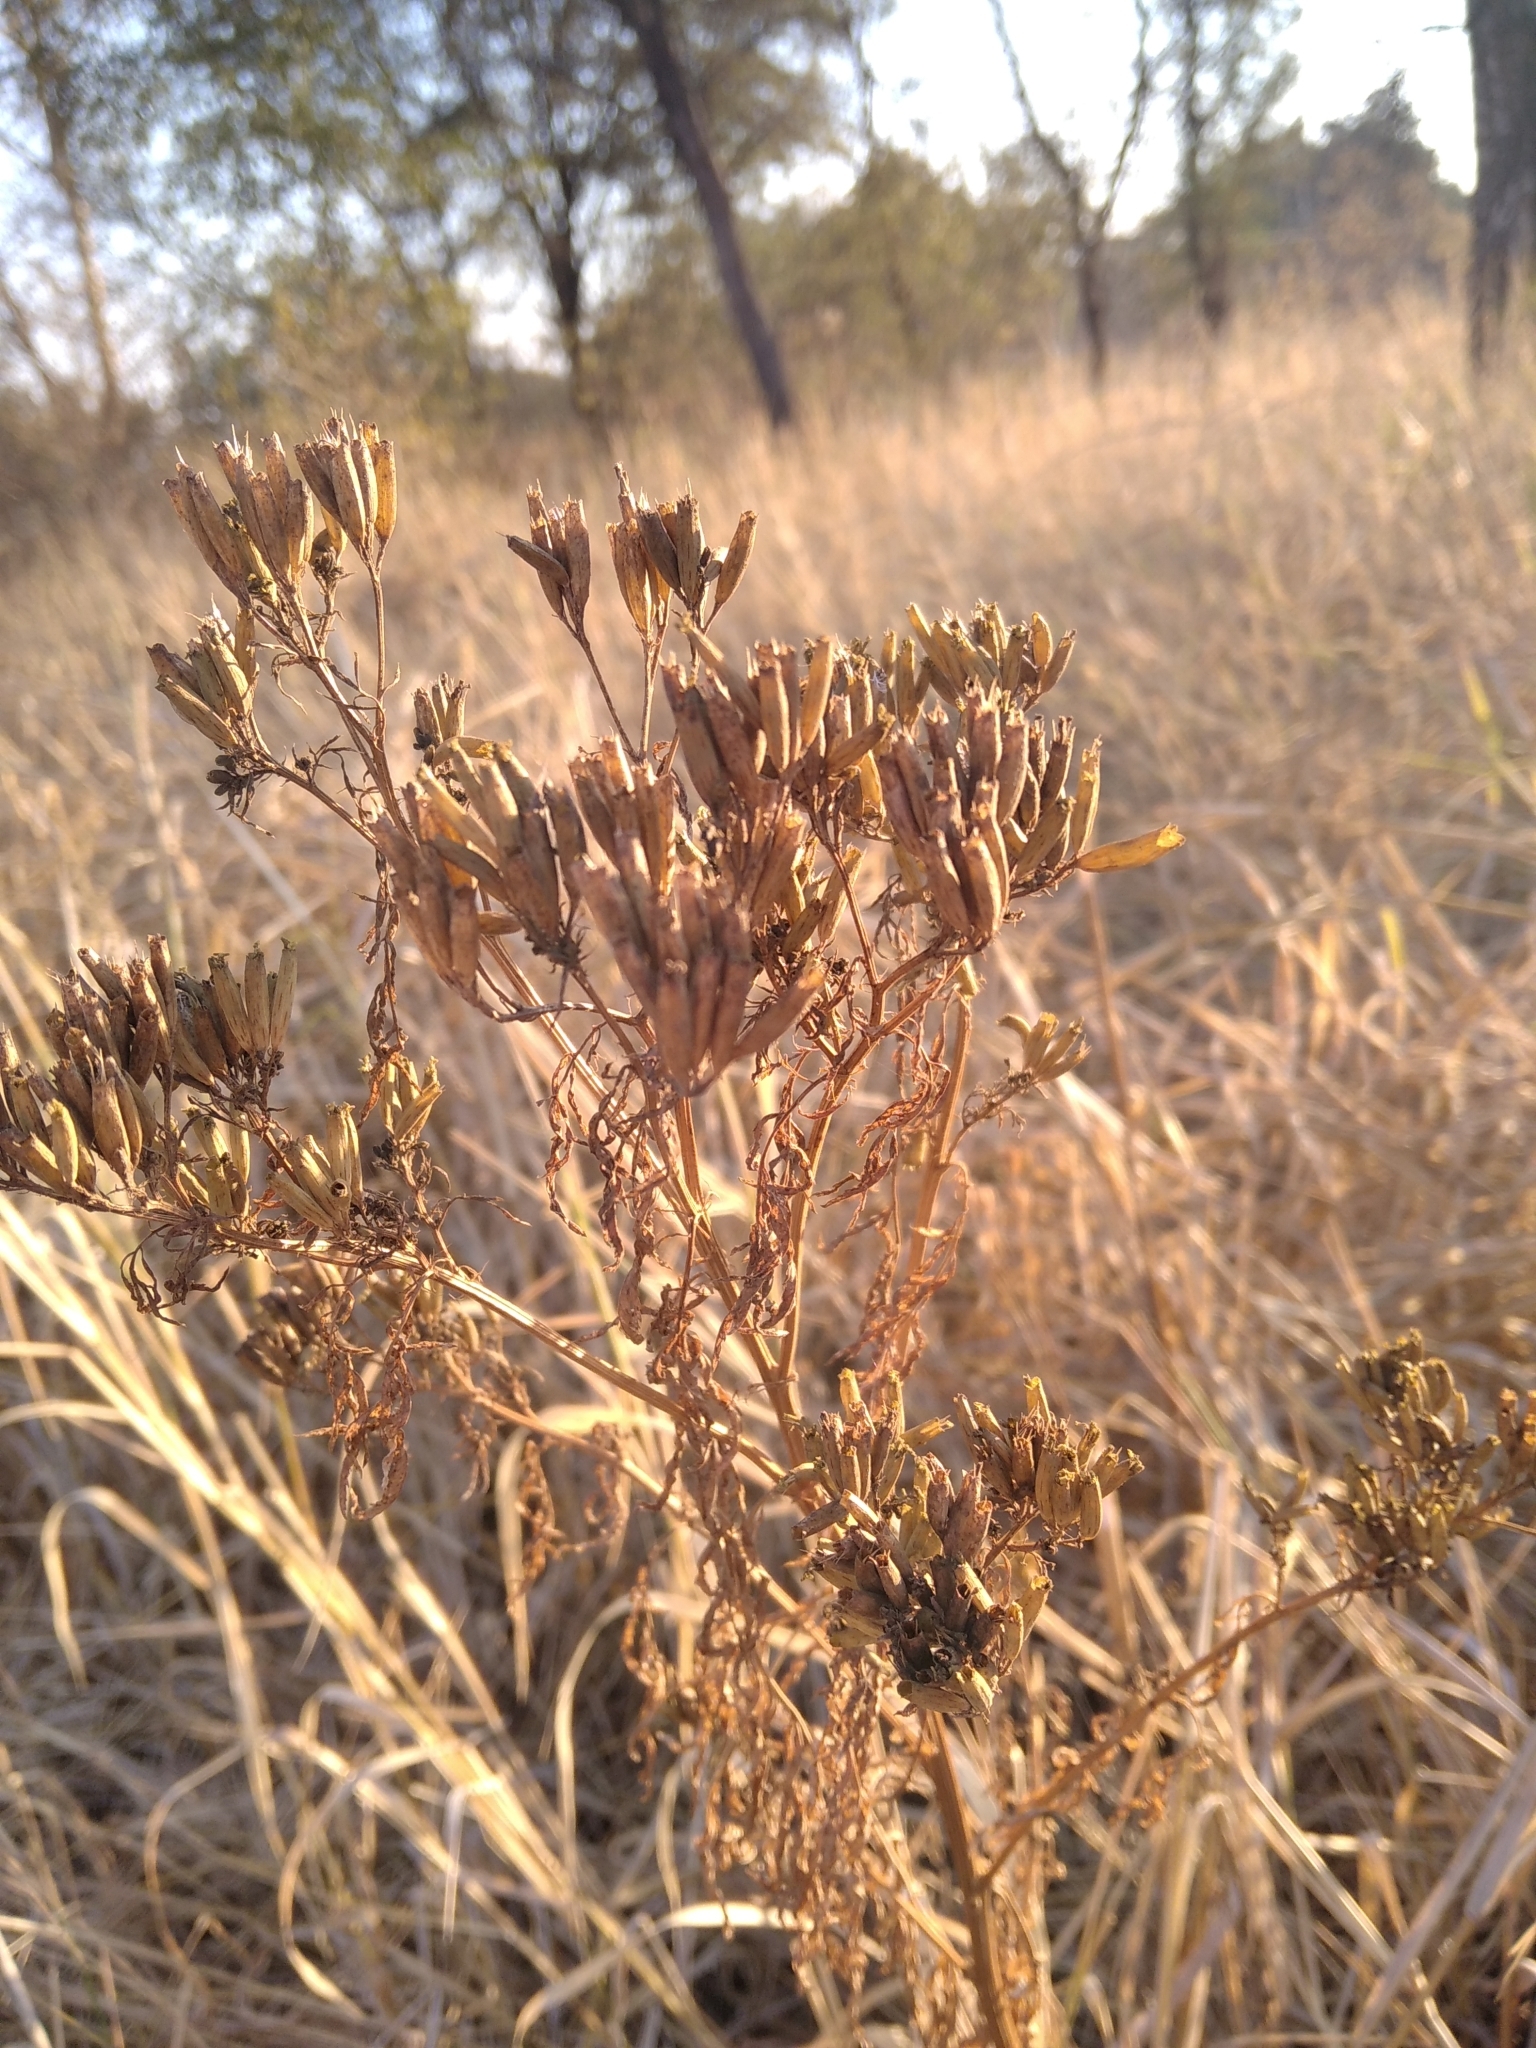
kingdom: Plantae
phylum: Tracheophyta
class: Magnoliopsida
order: Asterales
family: Asteraceae
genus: Tagetes
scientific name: Tagetes minuta
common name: Muster john henry
